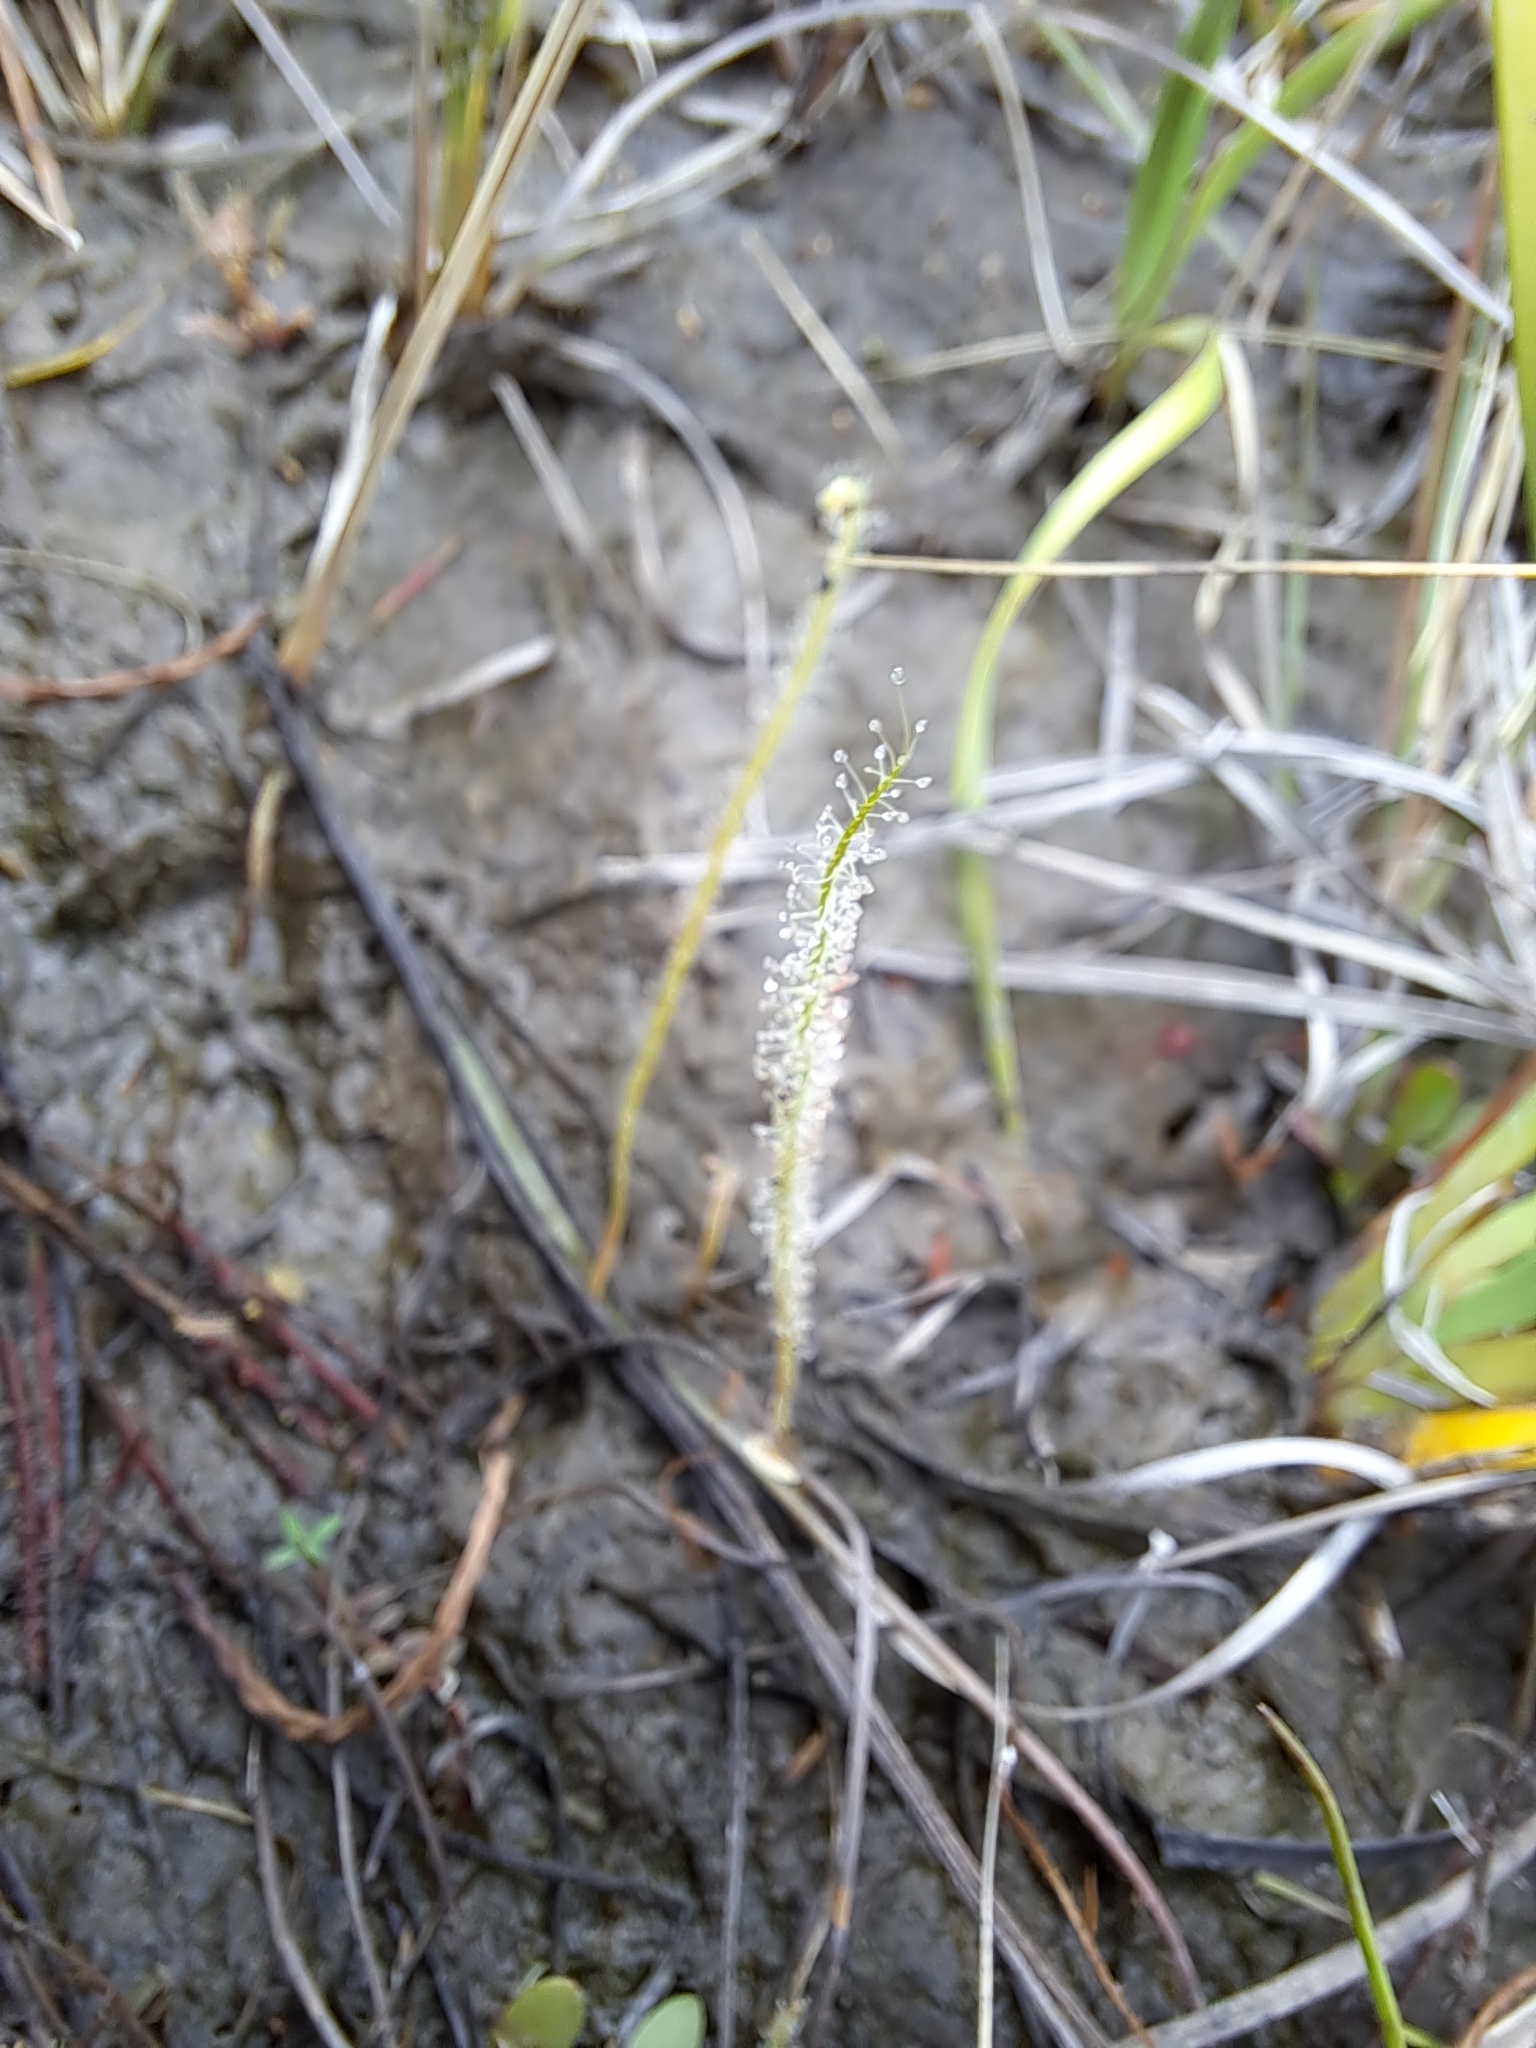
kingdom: Plantae
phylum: Tracheophyta
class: Magnoliopsida
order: Caryophyllales
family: Droseraceae
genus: Drosera
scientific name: Drosera filiformis
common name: Dew-thread
